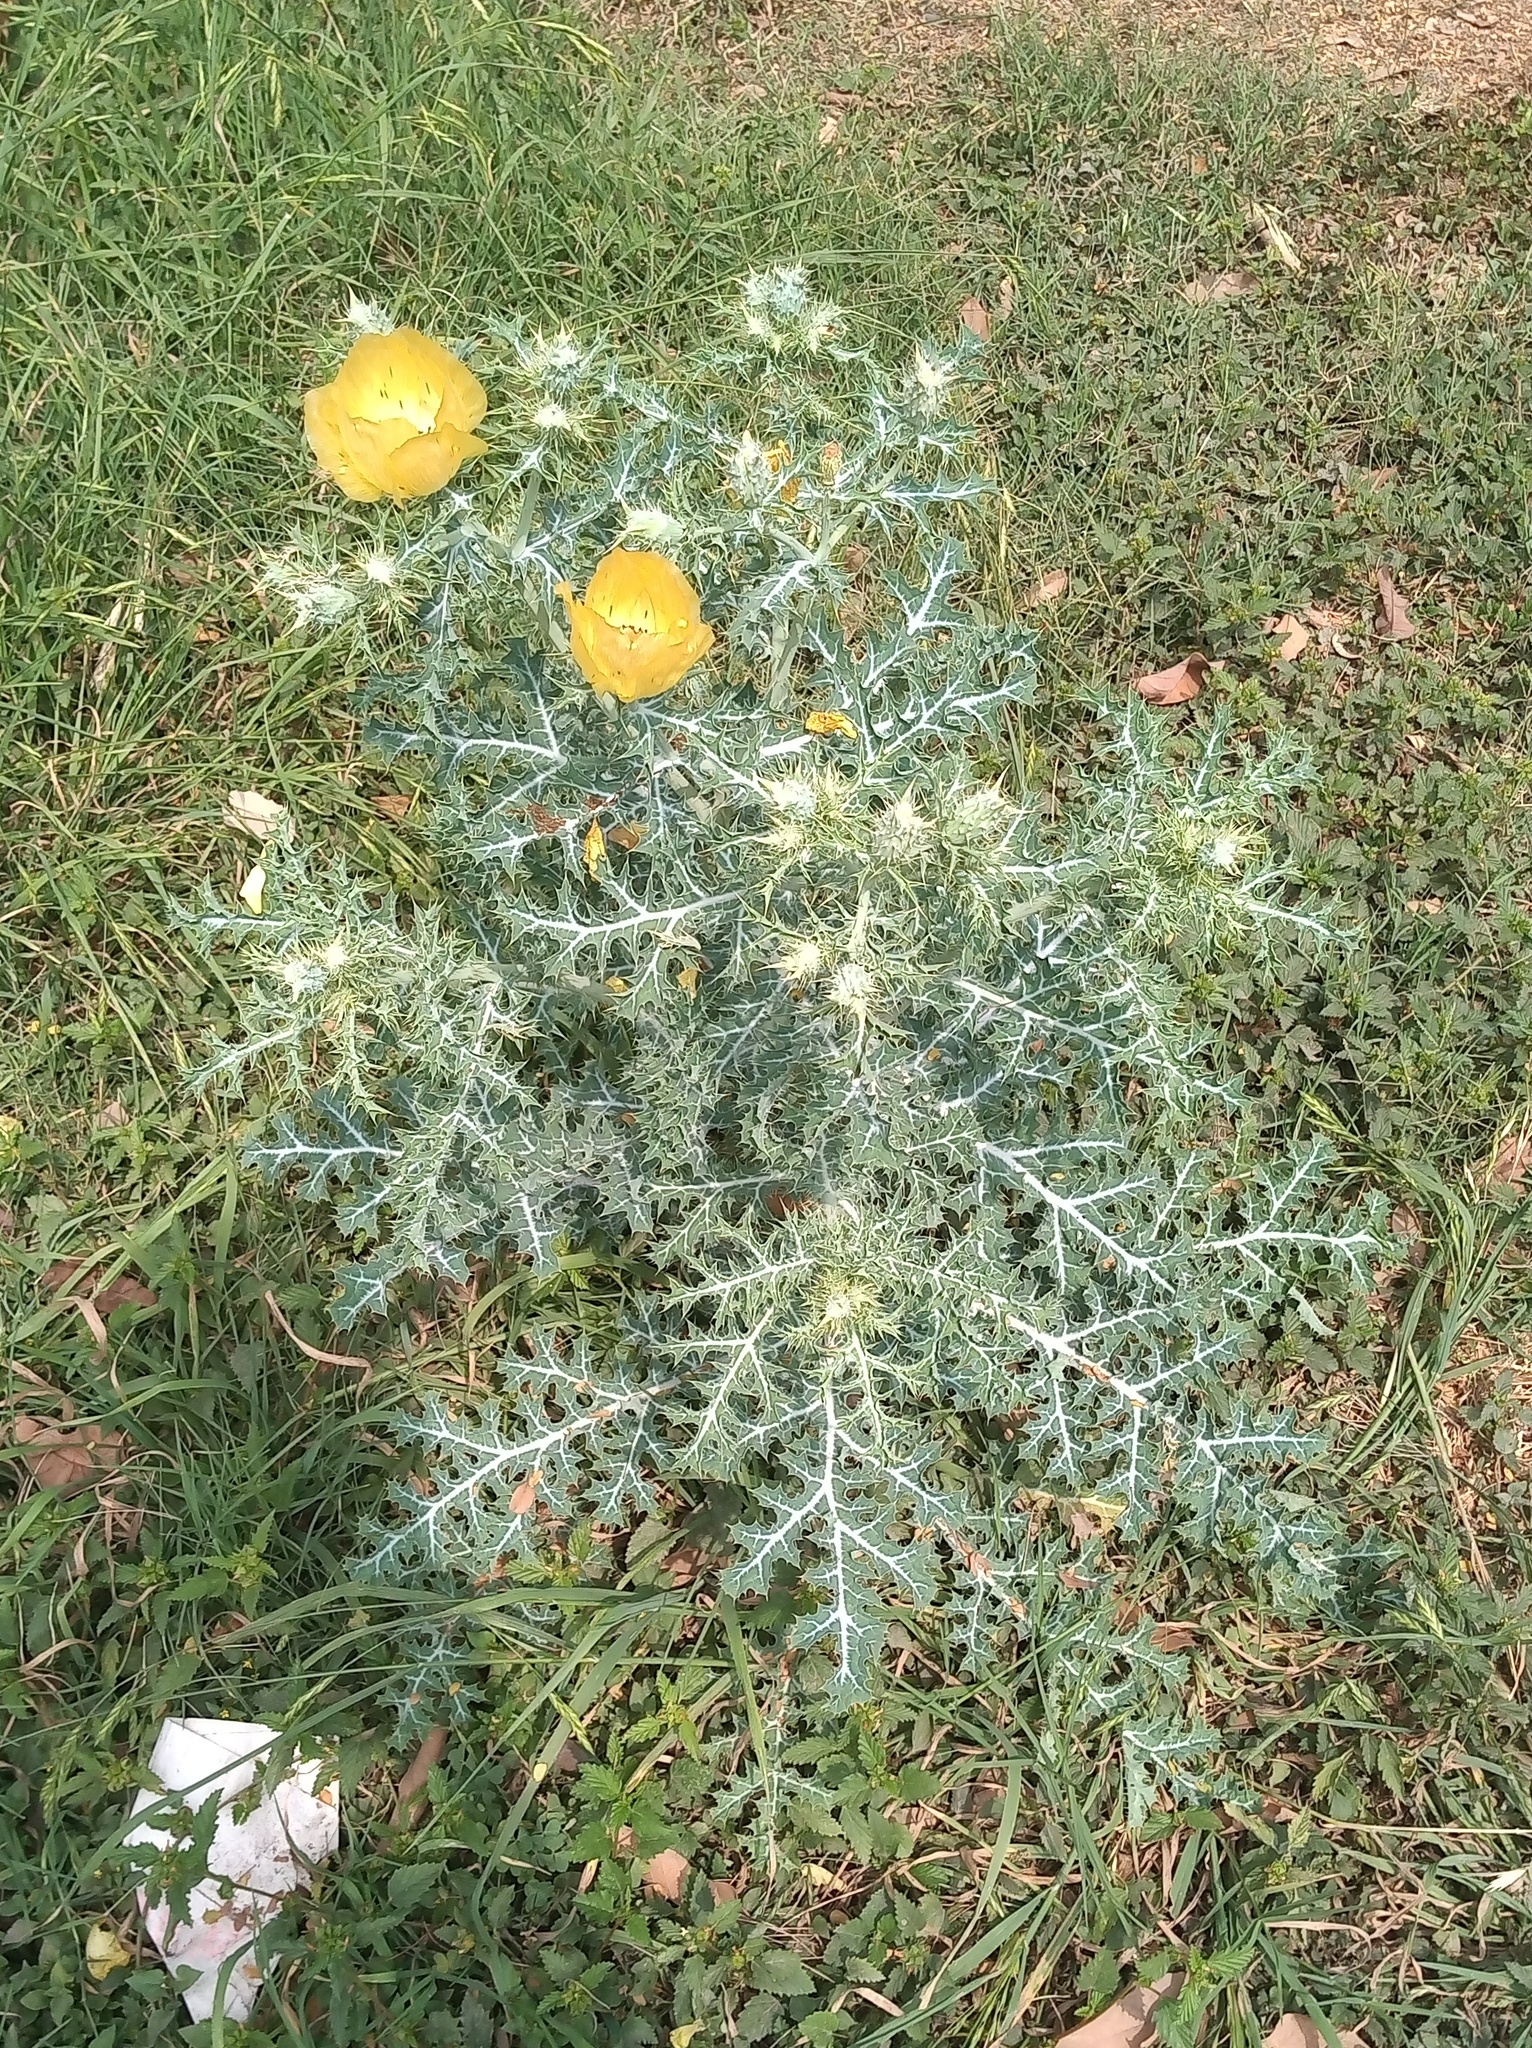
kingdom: Plantae
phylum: Tracheophyta
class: Magnoliopsida
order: Ranunculales
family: Papaveraceae
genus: Argemone
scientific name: Argemone aenea
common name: Golden prickly-poppy
